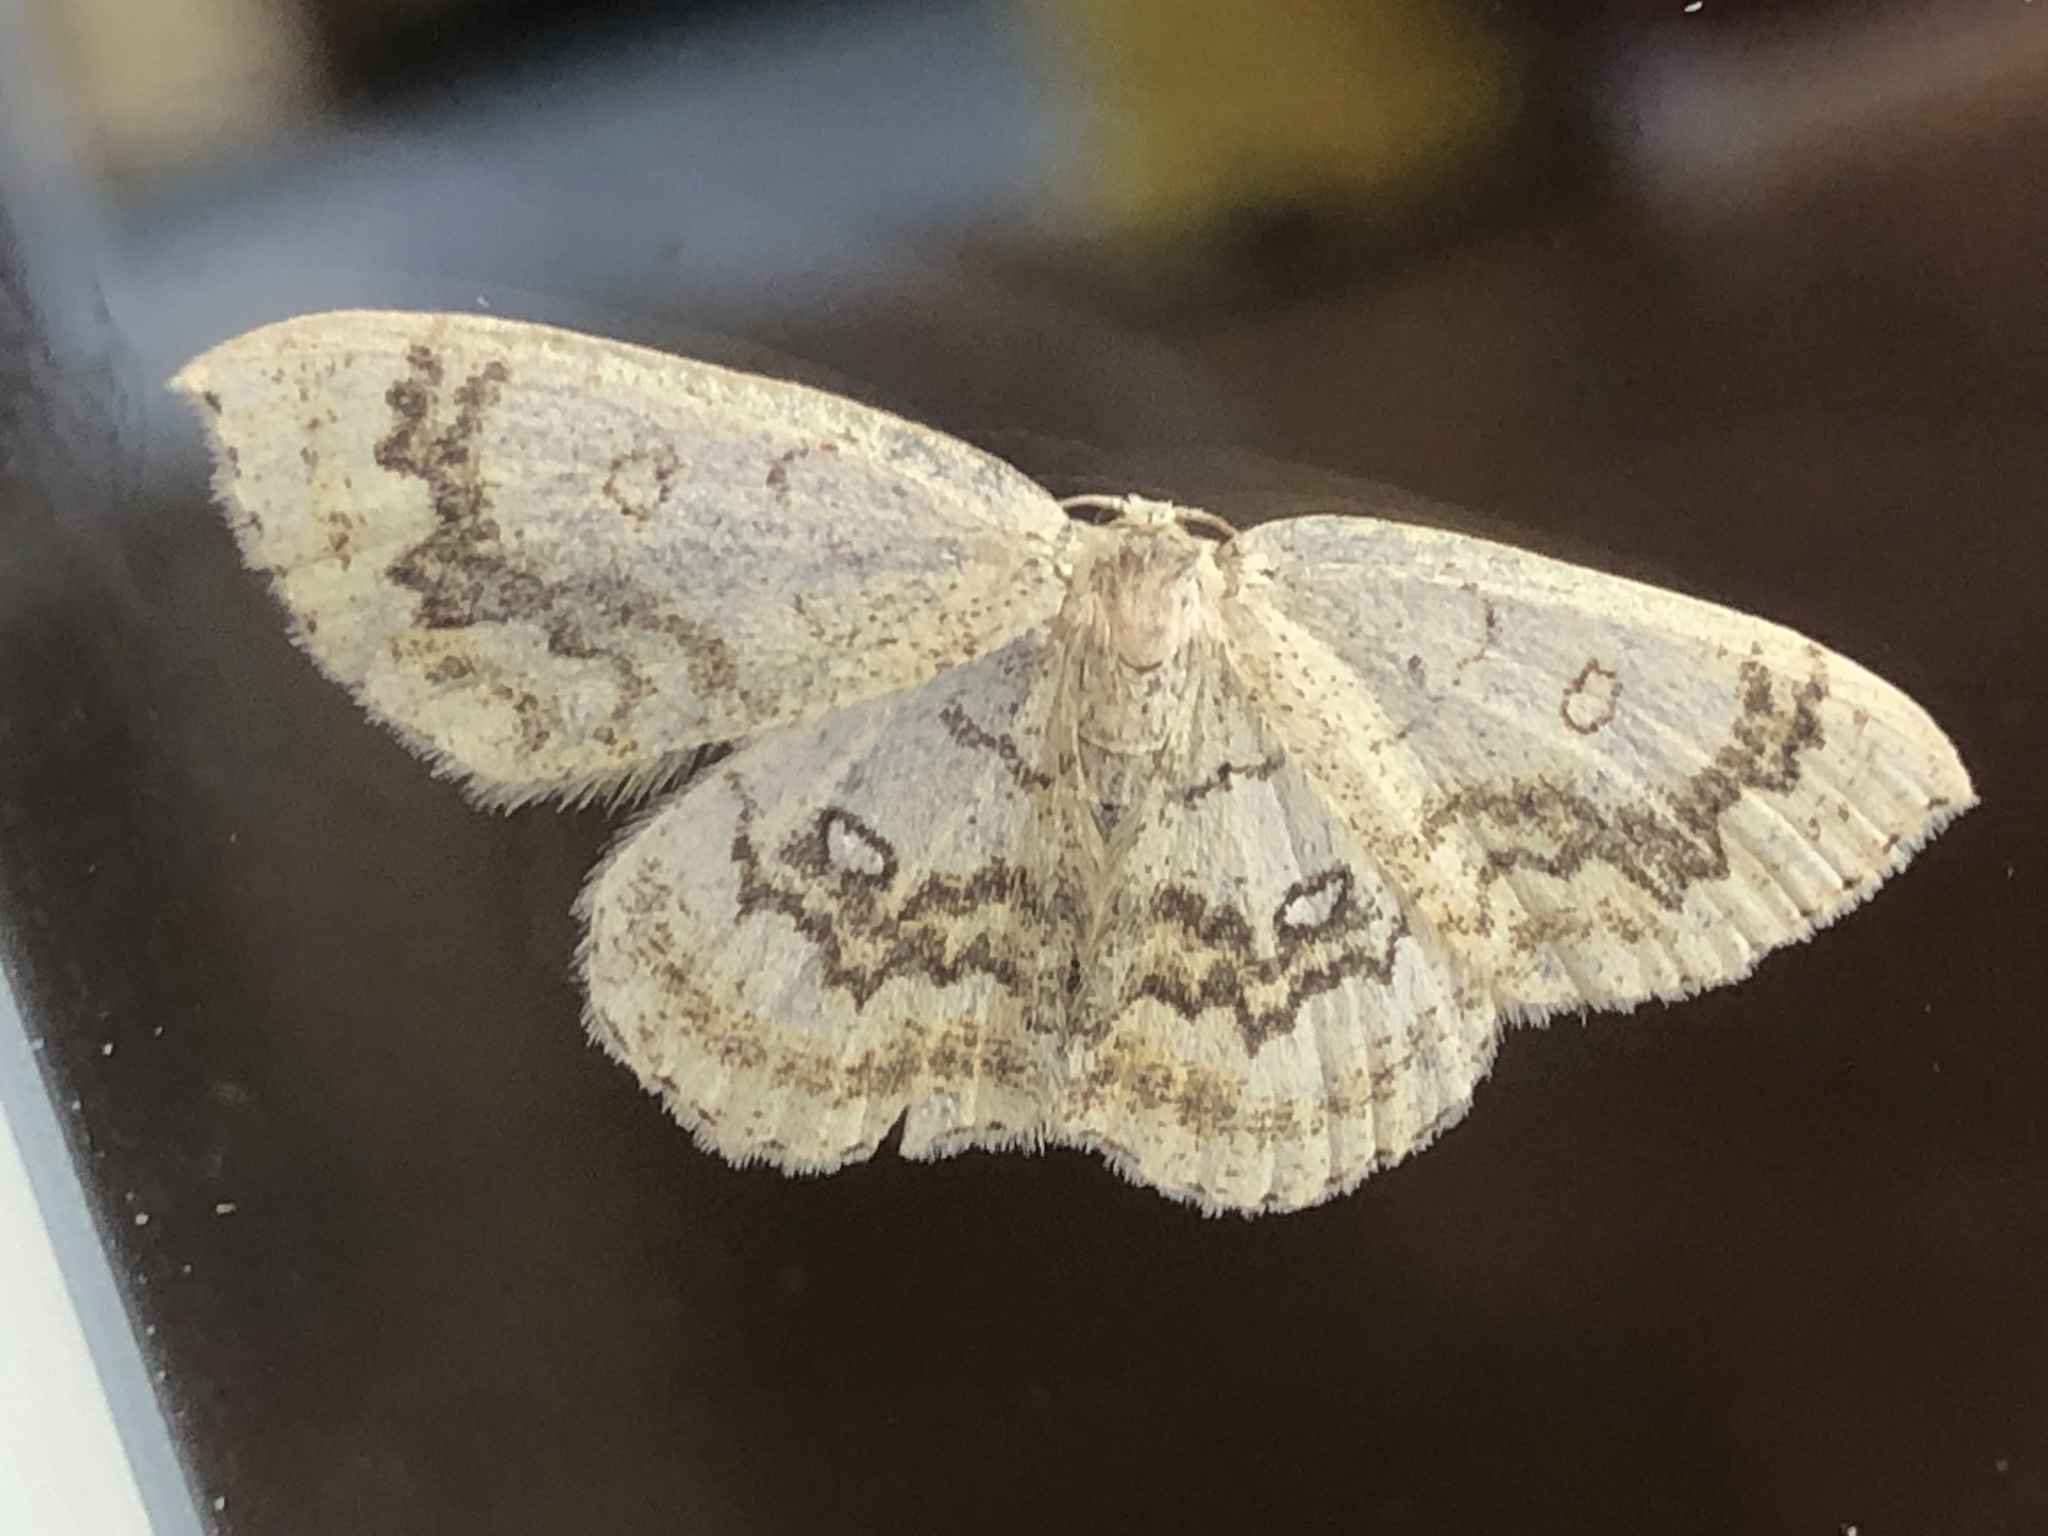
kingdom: Animalia
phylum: Arthropoda
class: Insecta
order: Lepidoptera
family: Geometridae
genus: Cyclophora
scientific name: Cyclophora annularia
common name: Mocha
